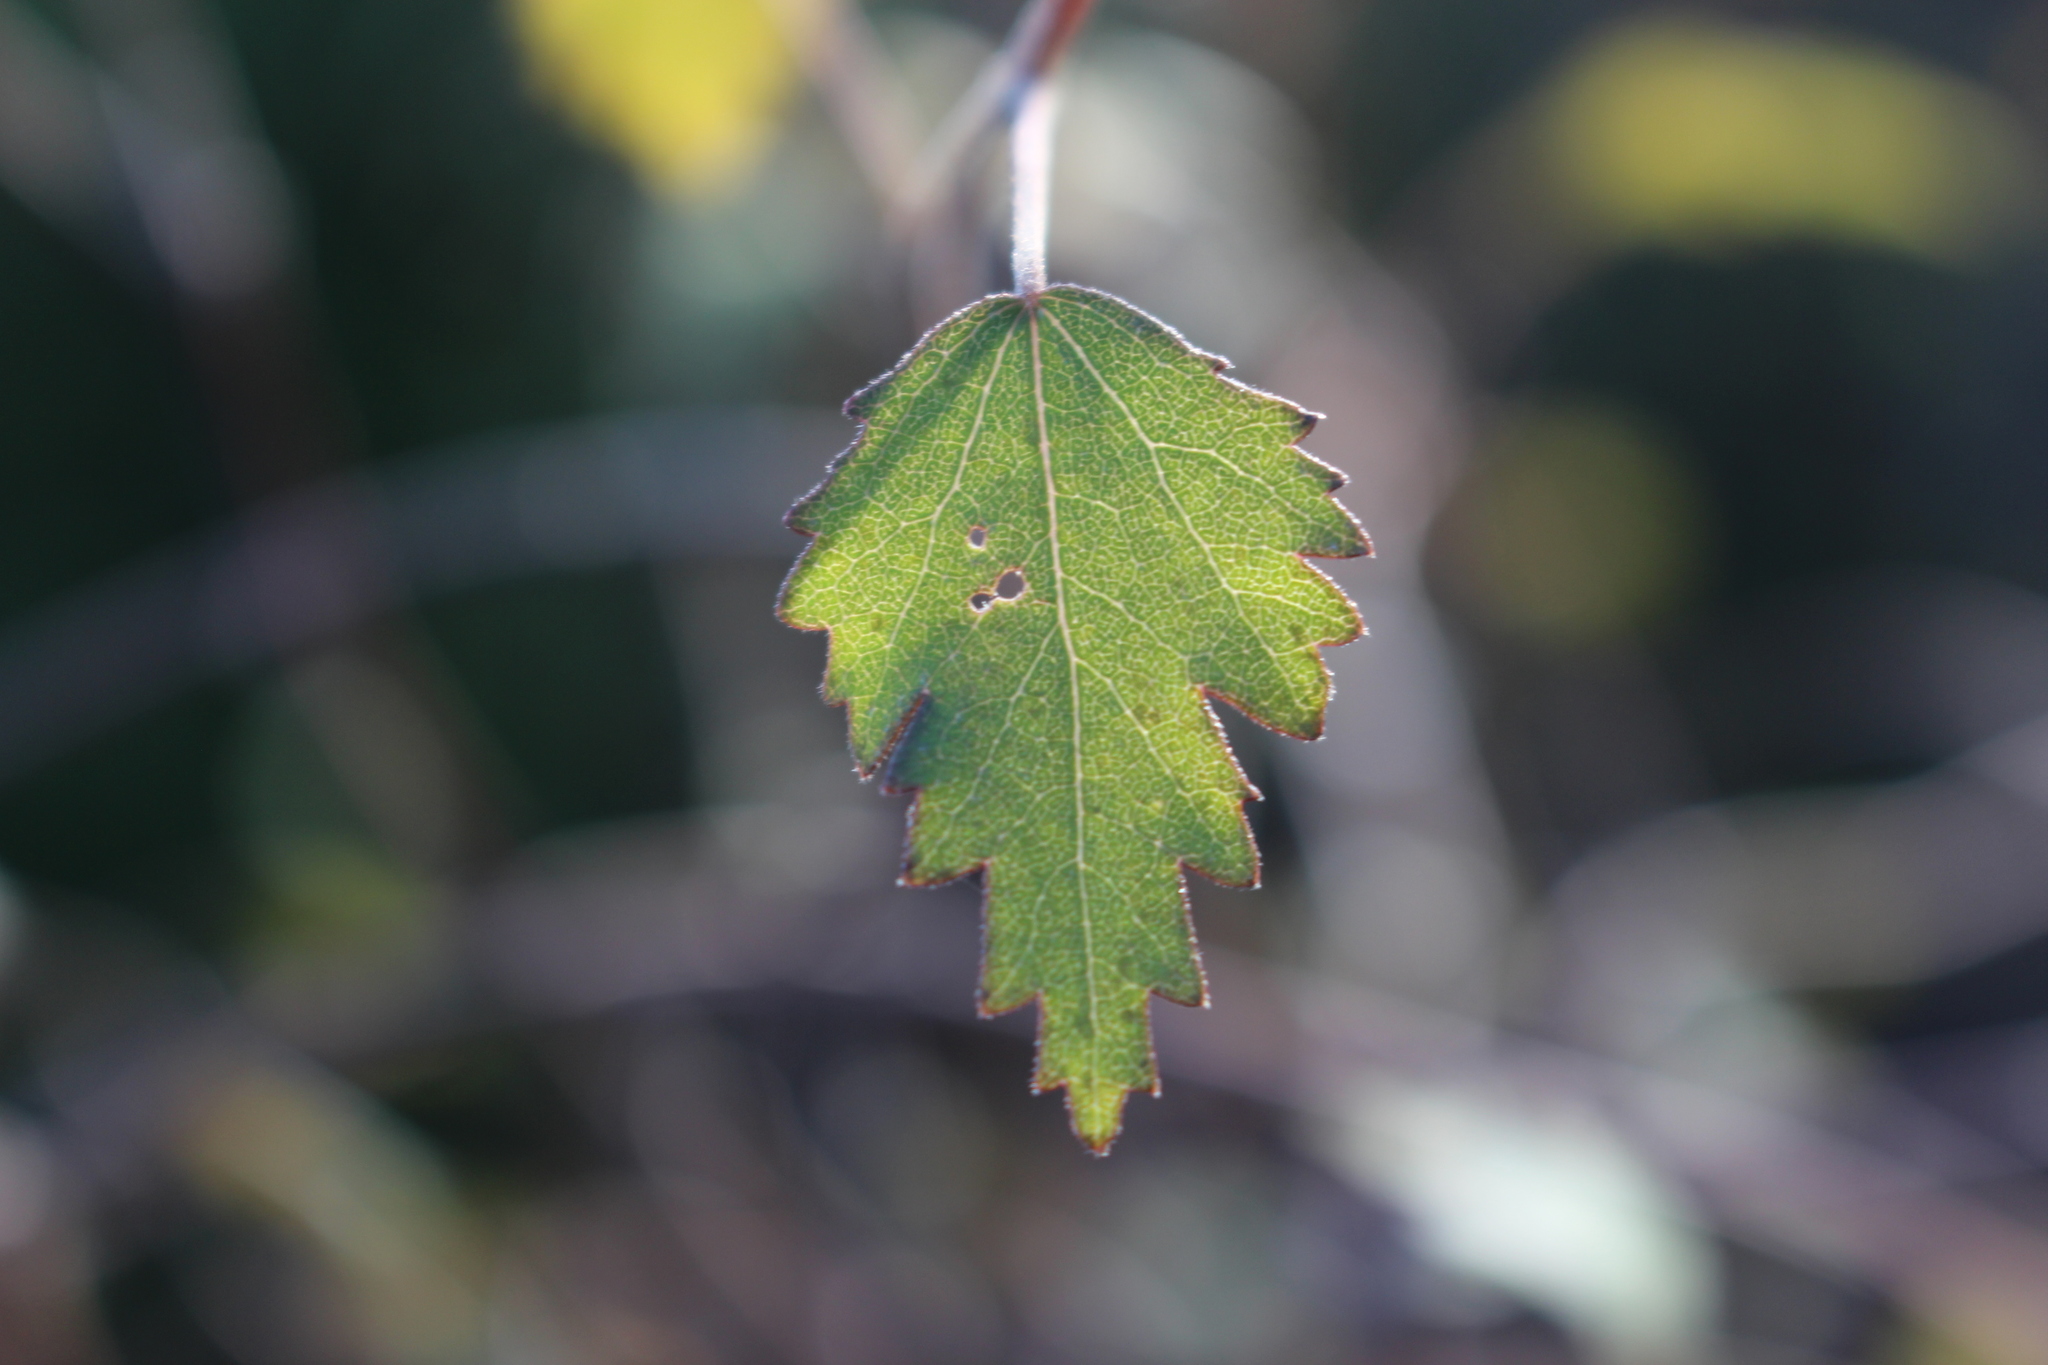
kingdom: Plantae
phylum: Tracheophyta
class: Magnoliopsida
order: Malvales
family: Malvaceae
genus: Plagianthus
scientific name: Plagianthus regius
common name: Manatu
